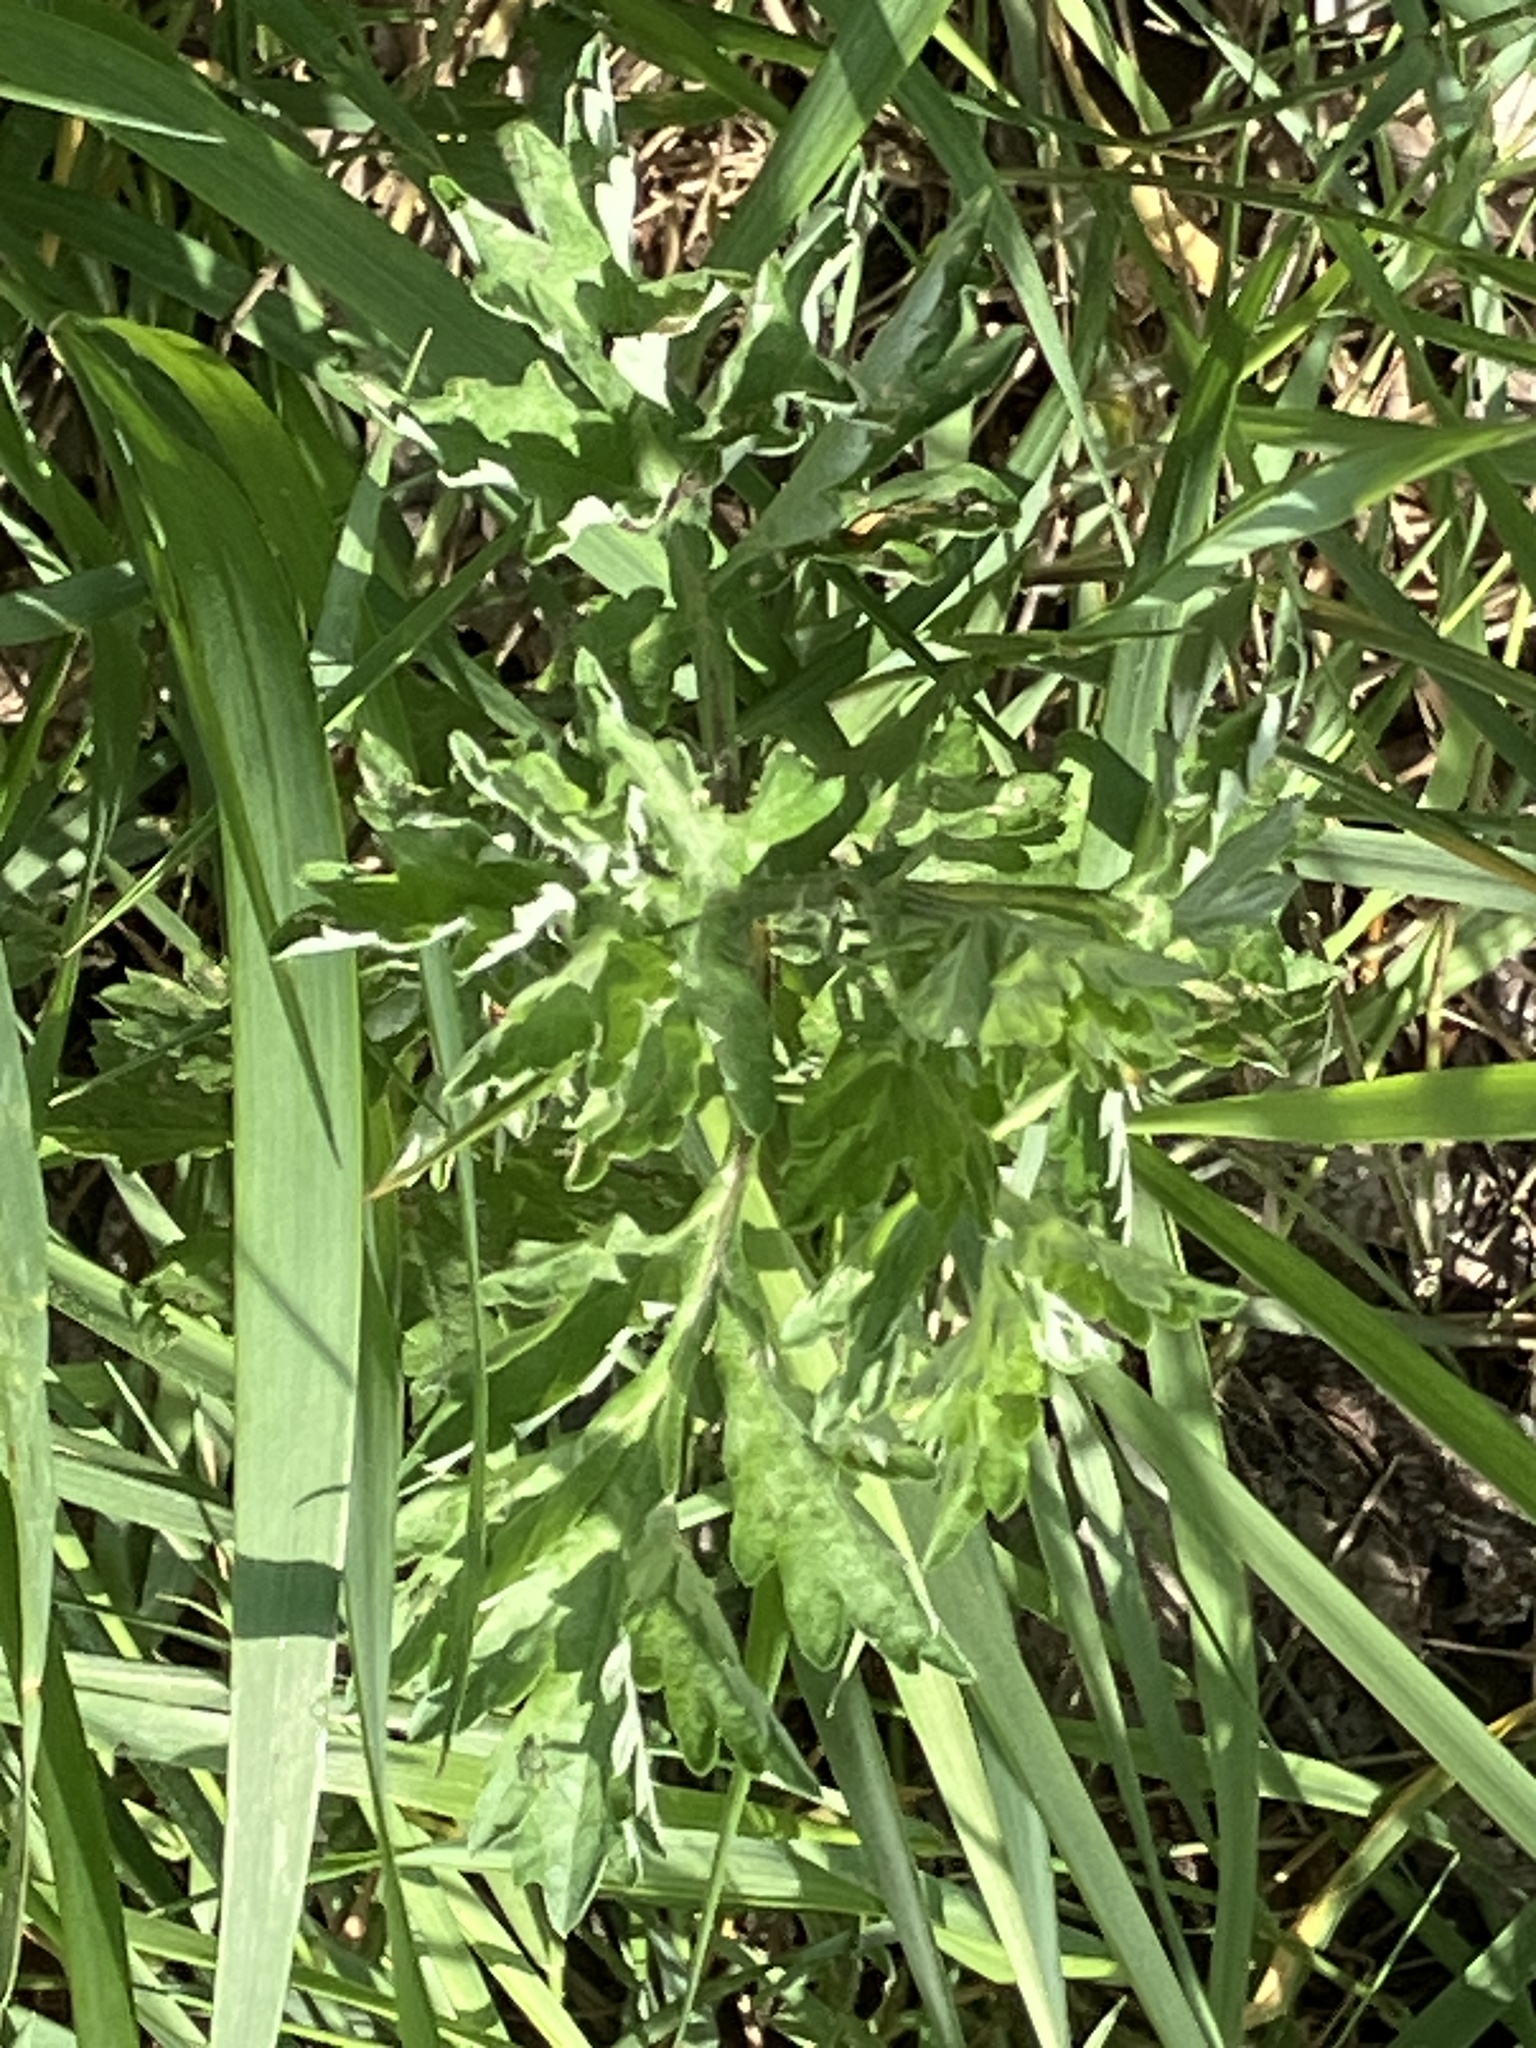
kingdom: Plantae
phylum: Tracheophyta
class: Magnoliopsida
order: Asterales
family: Asteraceae
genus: Artemisia
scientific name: Artemisia vulgaris
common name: Mugwort
